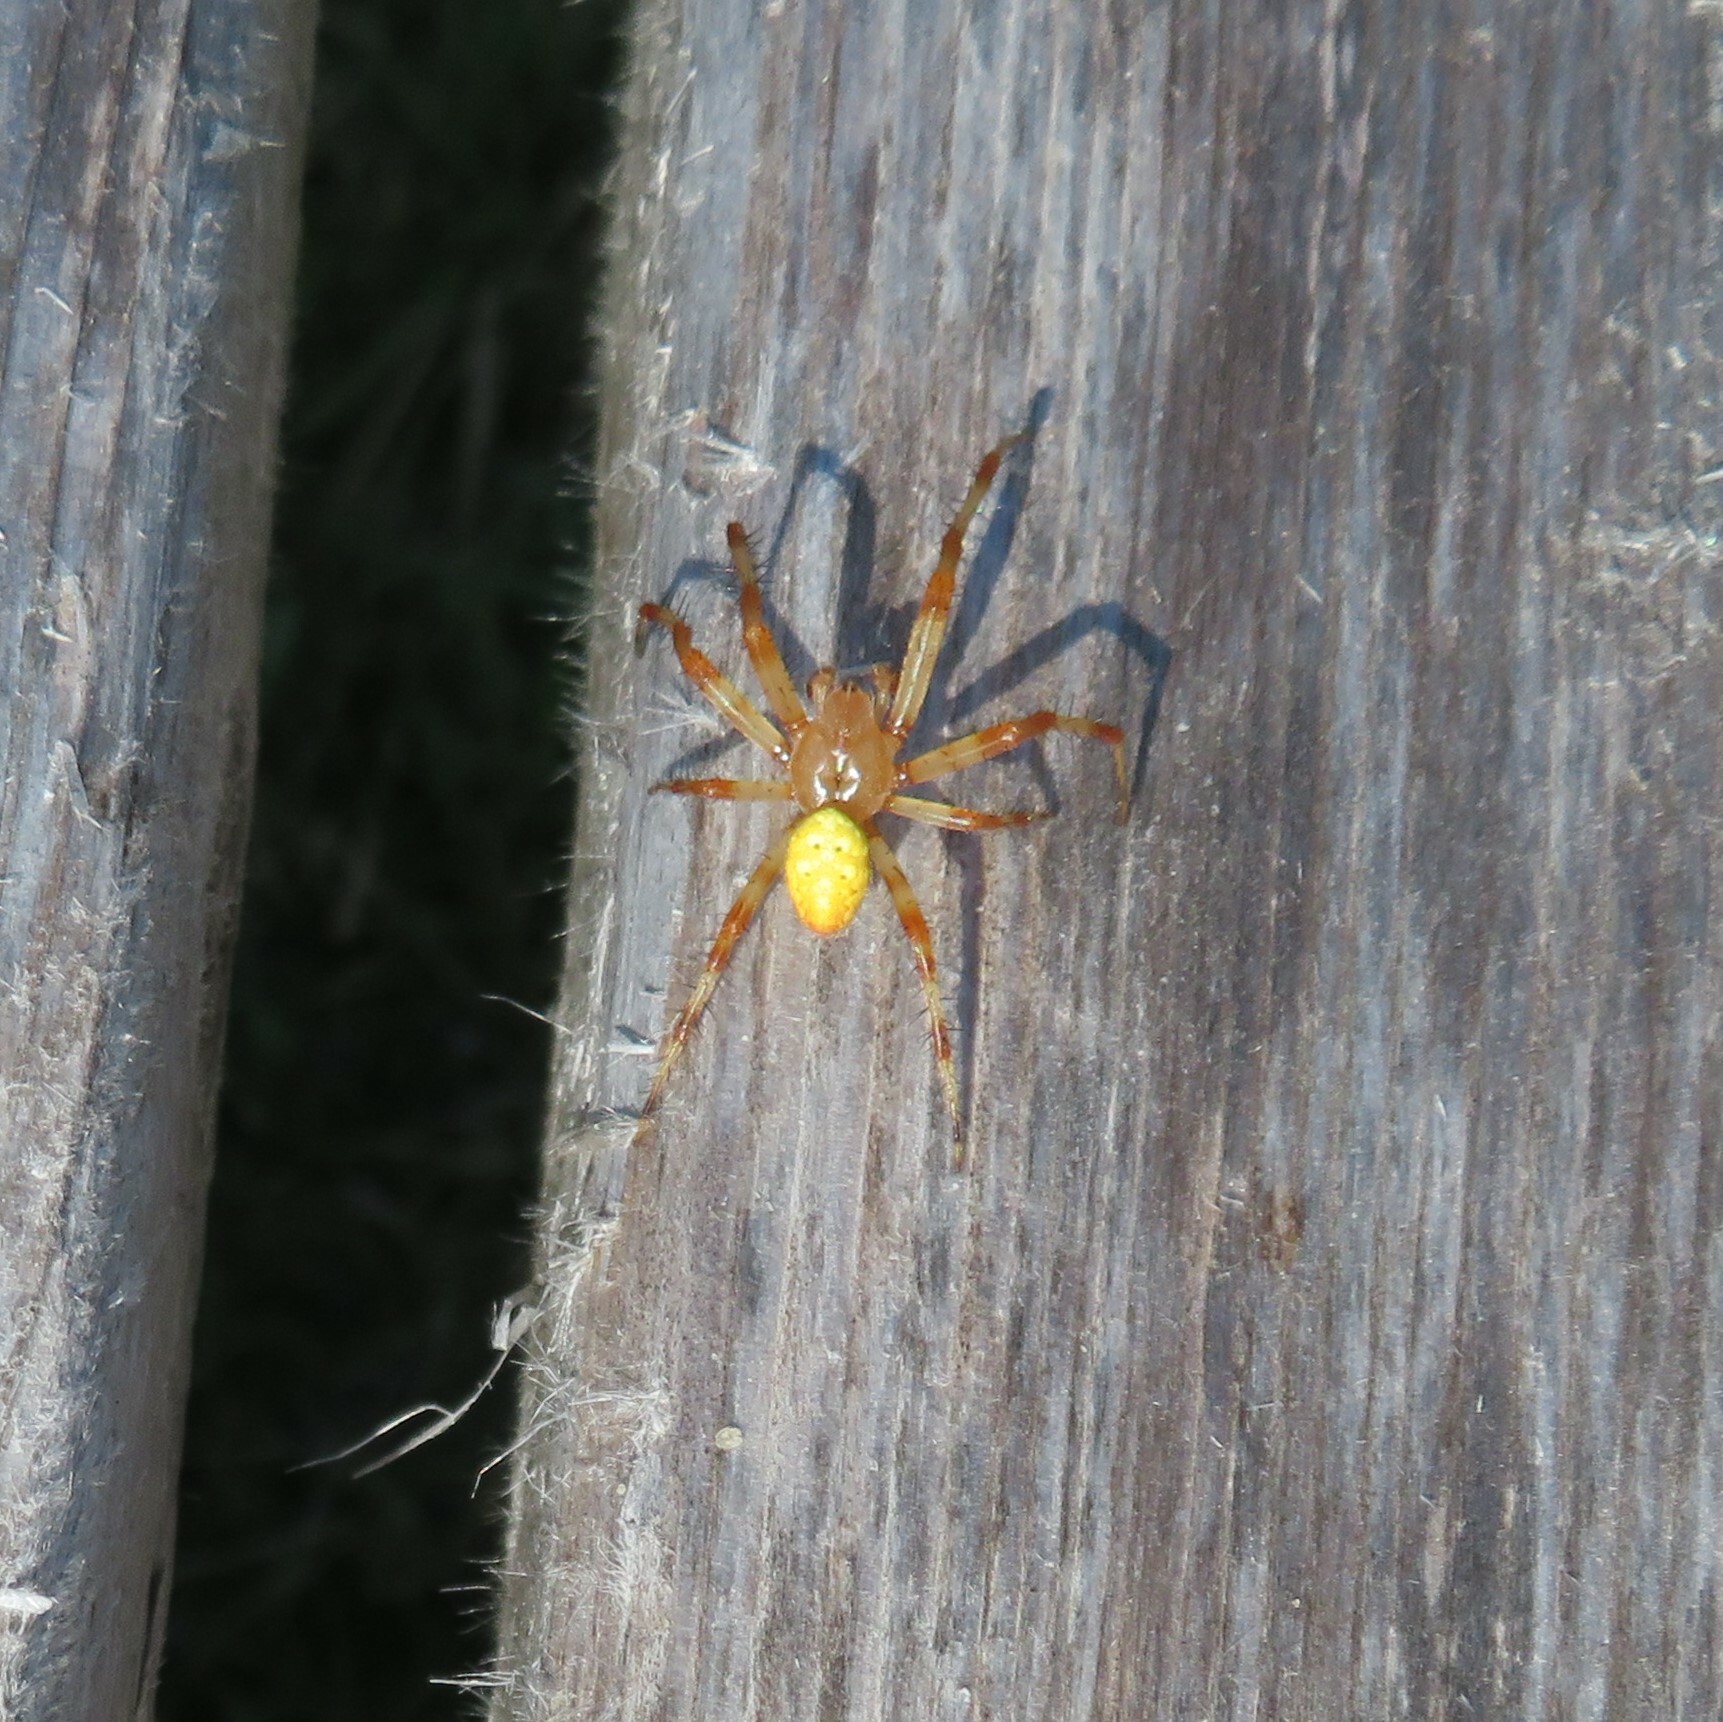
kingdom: Animalia
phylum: Arthropoda
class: Arachnida
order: Araneae
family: Araneidae
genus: Araneus
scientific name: Araneus trifolium
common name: Shamrock orbweaver
